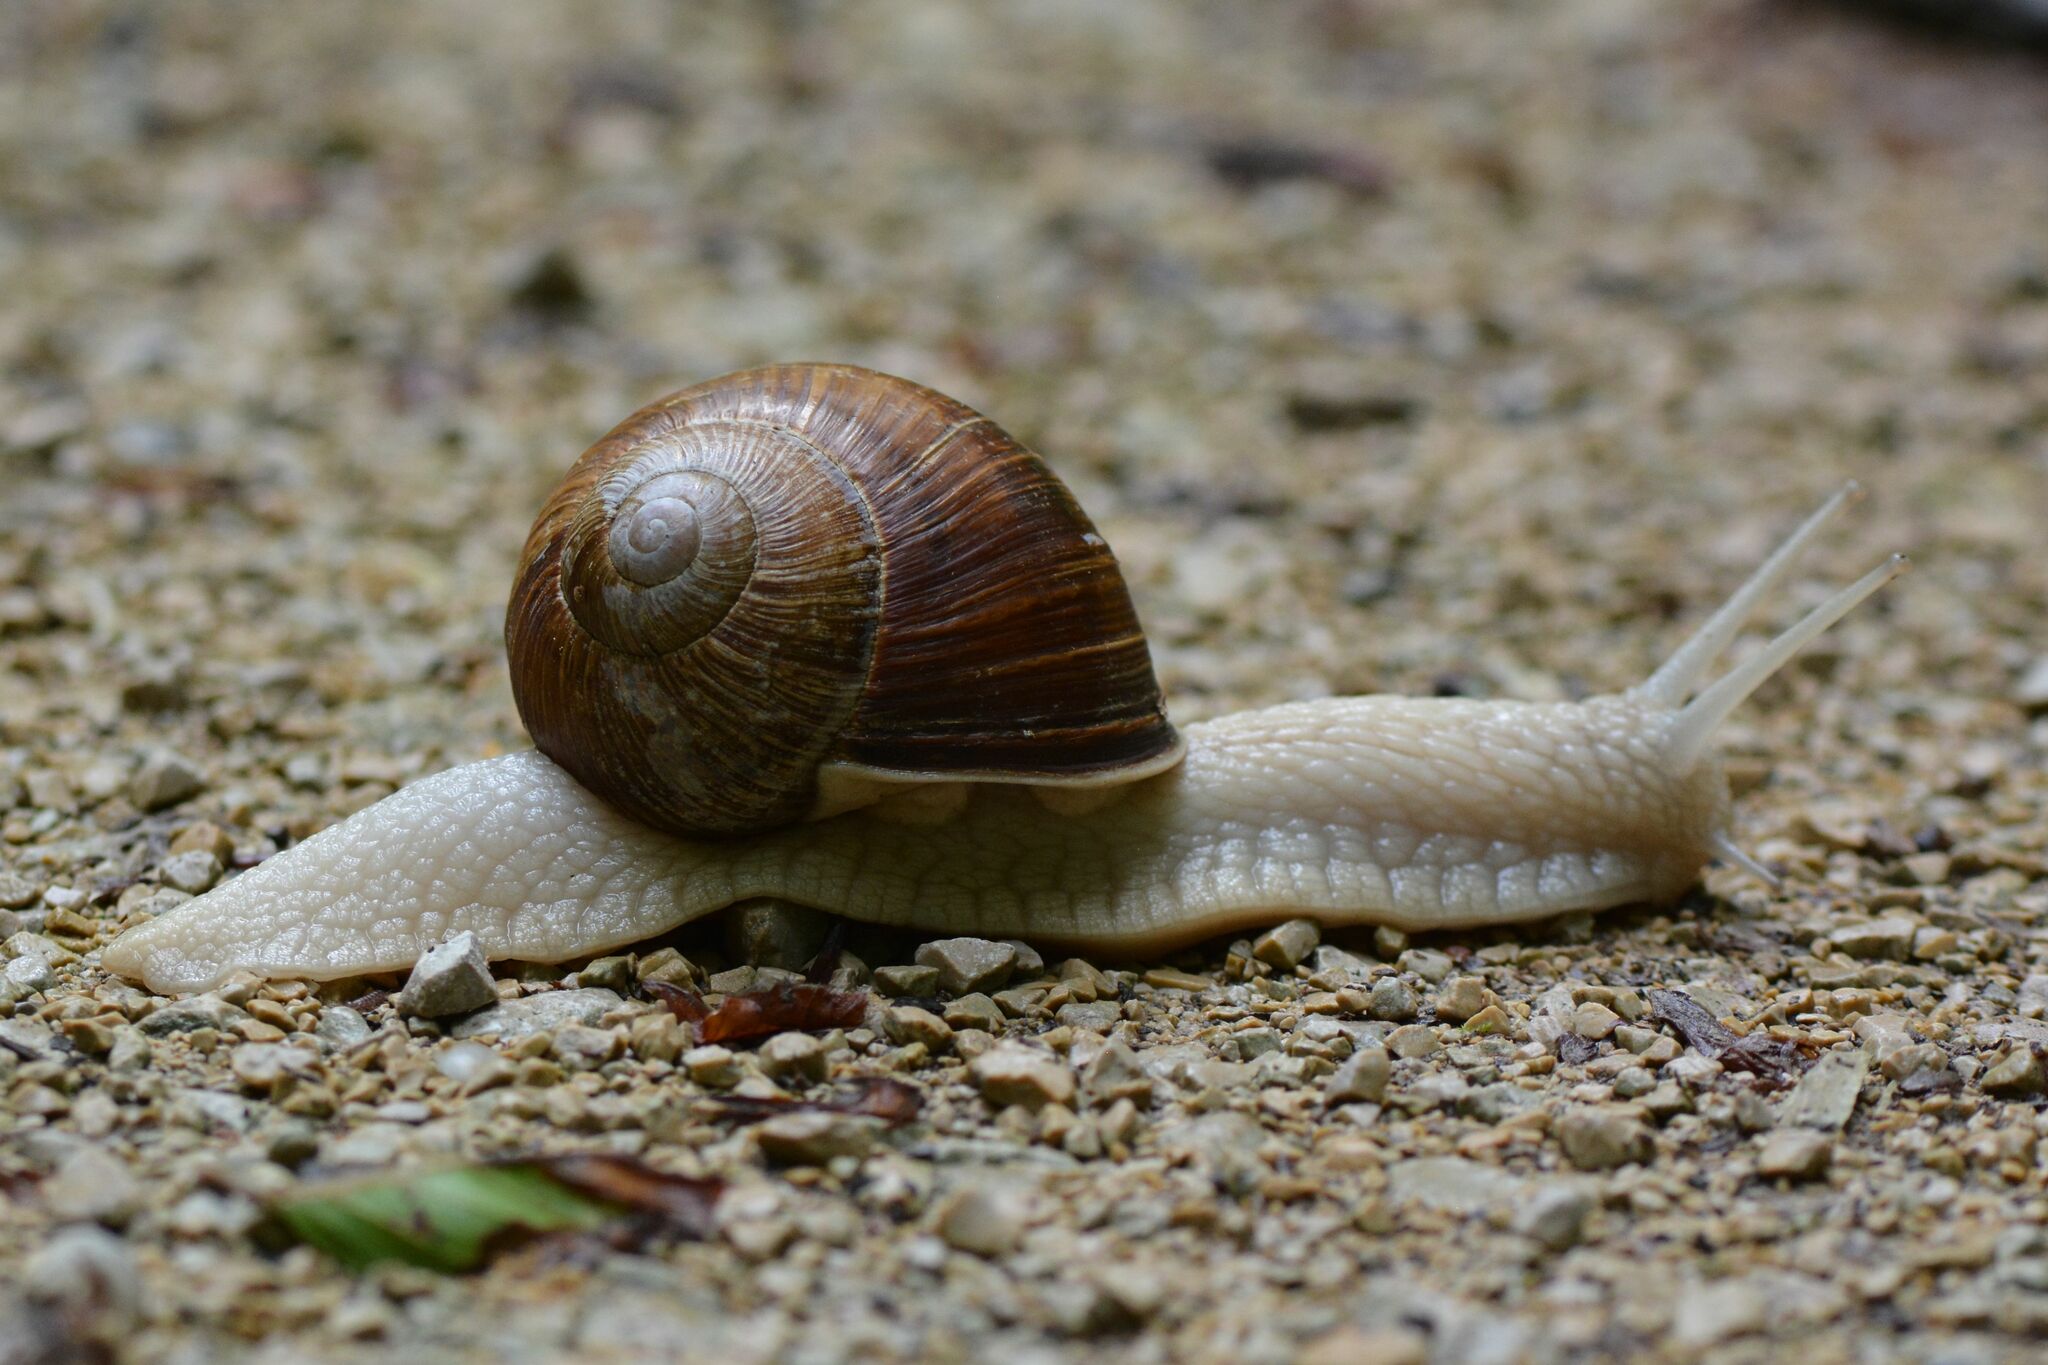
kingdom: Animalia
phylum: Mollusca
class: Gastropoda
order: Stylommatophora
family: Helicidae
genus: Helix
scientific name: Helix pomatia
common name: Roman snail
